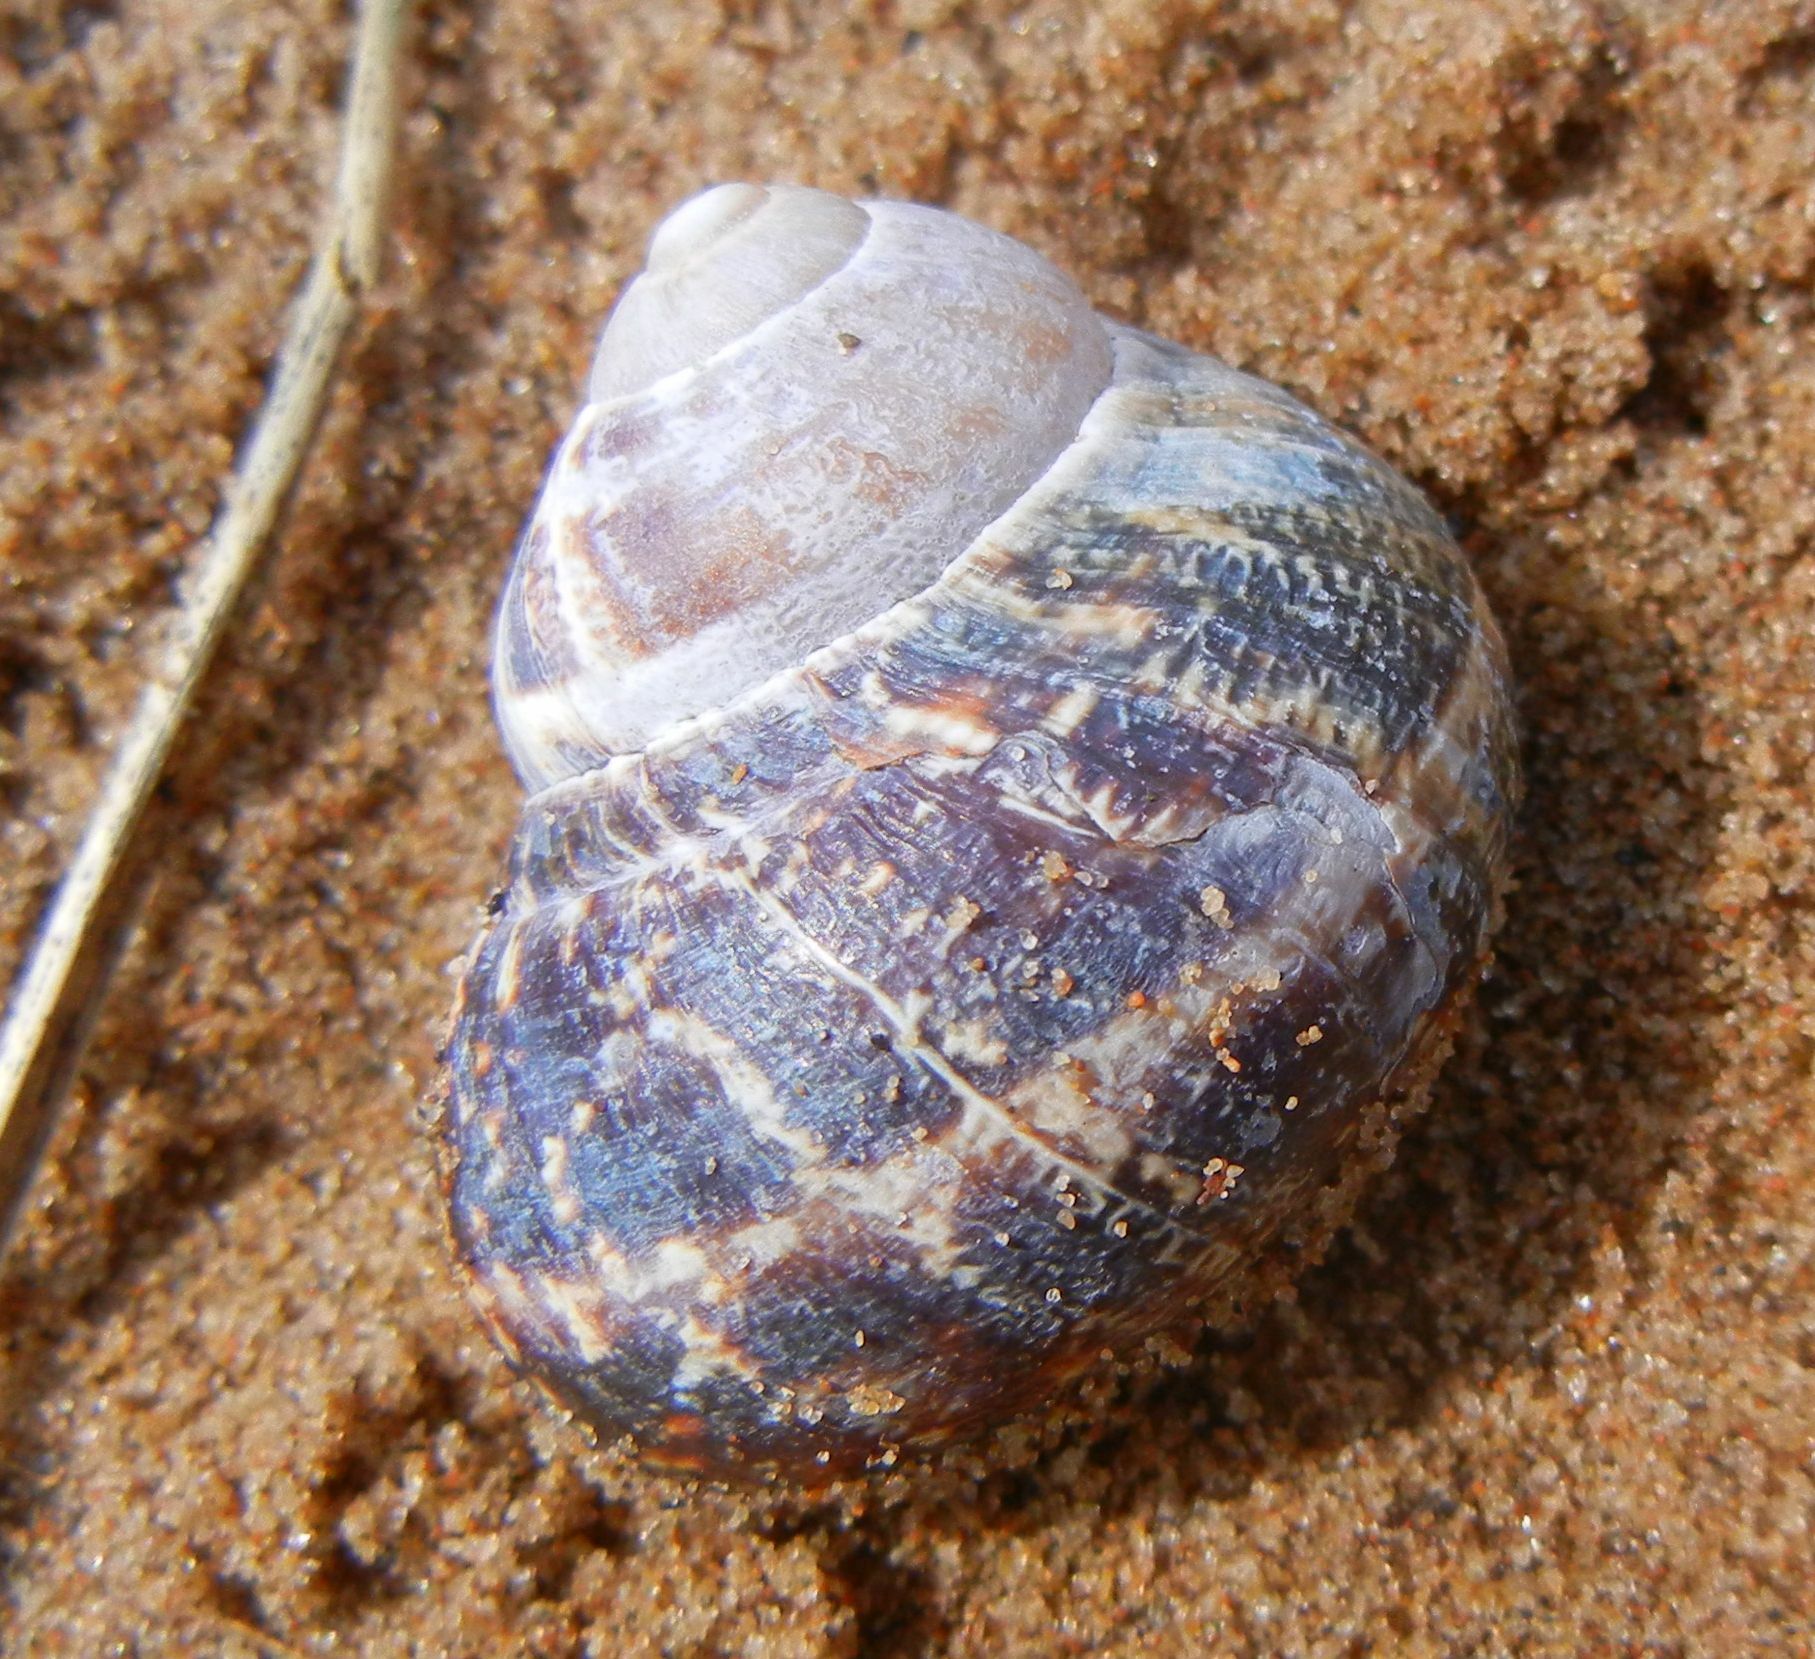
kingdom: Animalia
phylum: Mollusca
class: Gastropoda
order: Stylommatophora
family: Helicidae
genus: Cornu
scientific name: Cornu aspersum
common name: Brown garden snail
